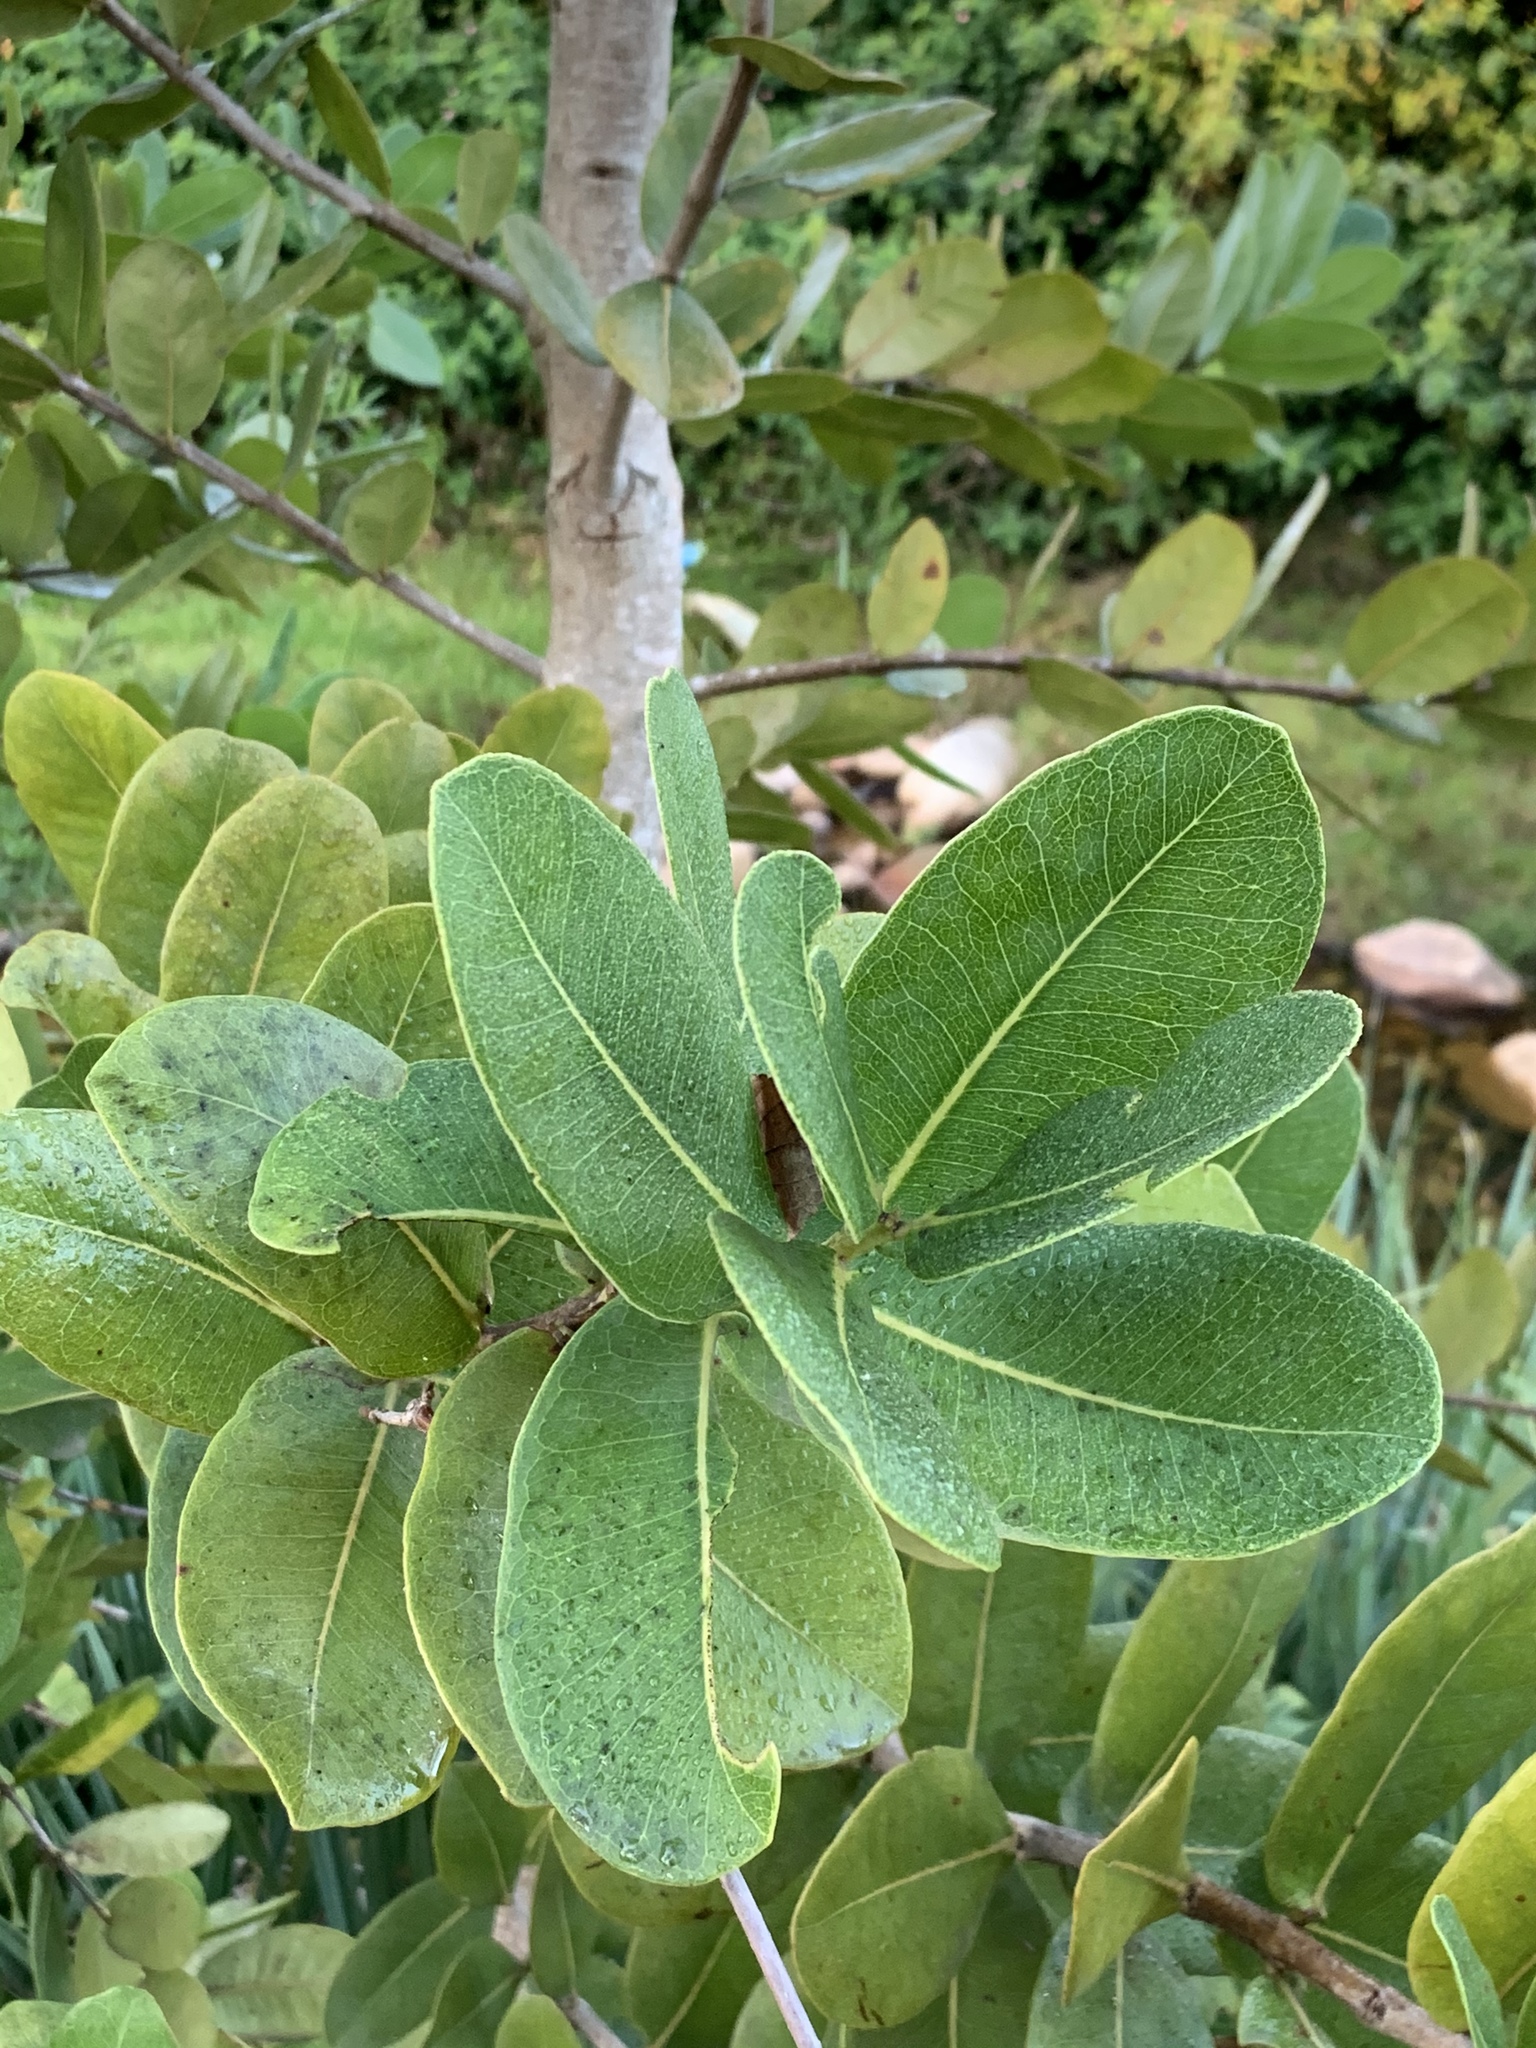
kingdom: Plantae
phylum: Tracheophyta
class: Magnoliopsida
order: Myrtales
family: Myrtaceae
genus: Syzygium
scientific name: Syzygium cordatum
